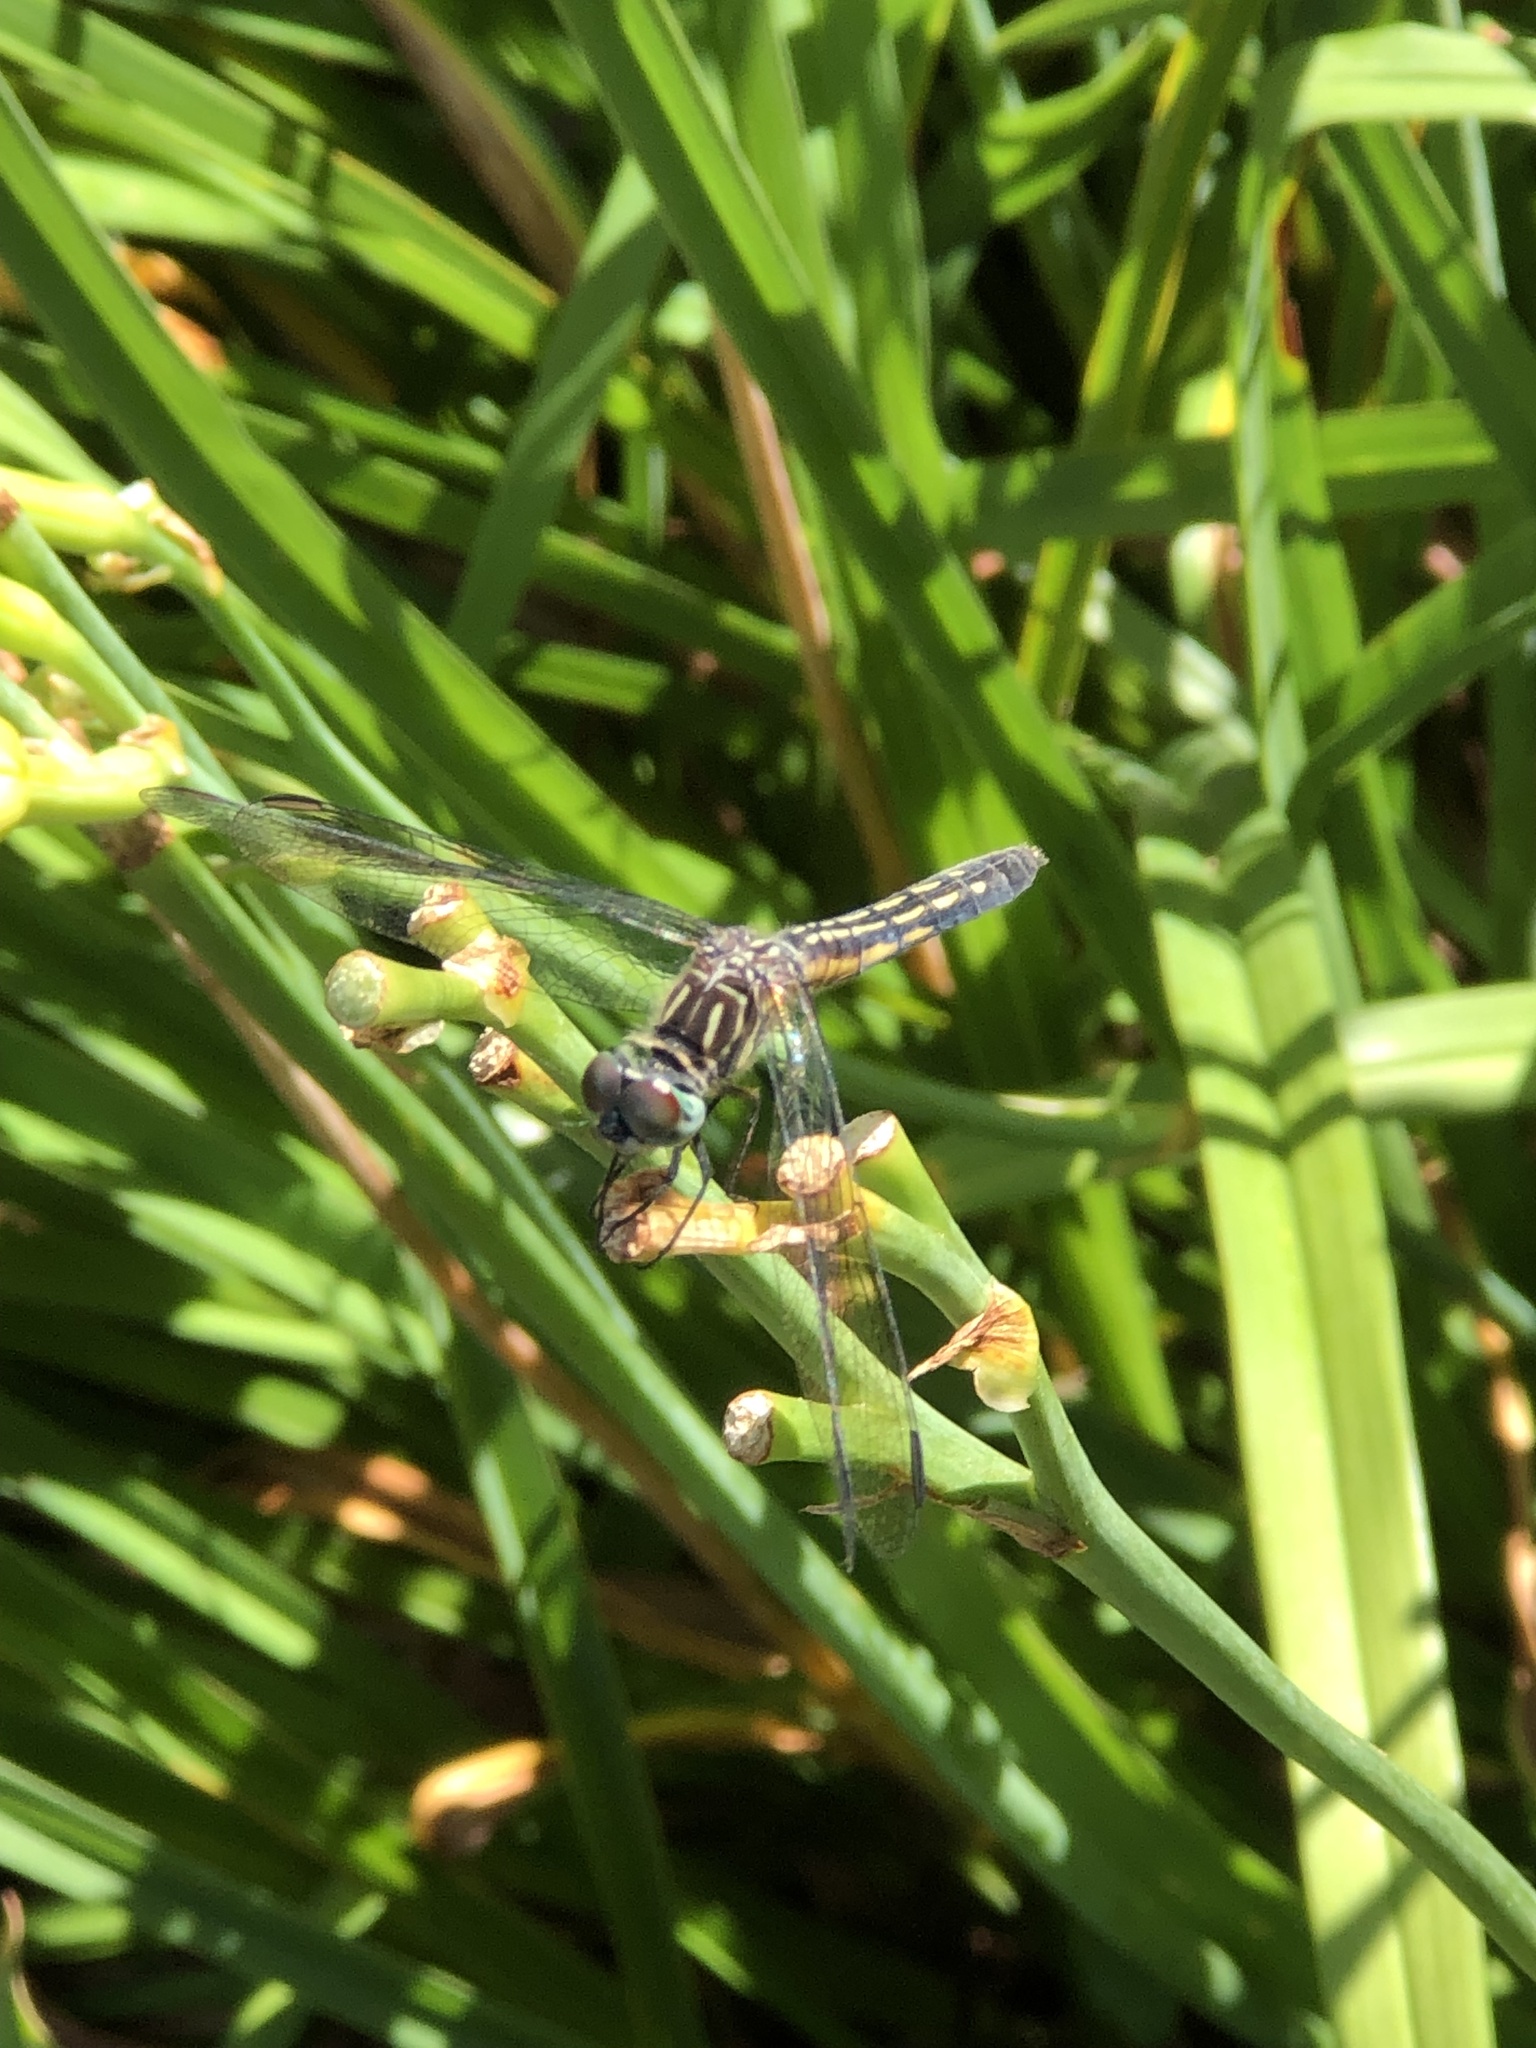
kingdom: Animalia
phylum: Arthropoda
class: Insecta
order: Odonata
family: Libellulidae
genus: Pachydiplax
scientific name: Pachydiplax longipennis
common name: Blue dasher
